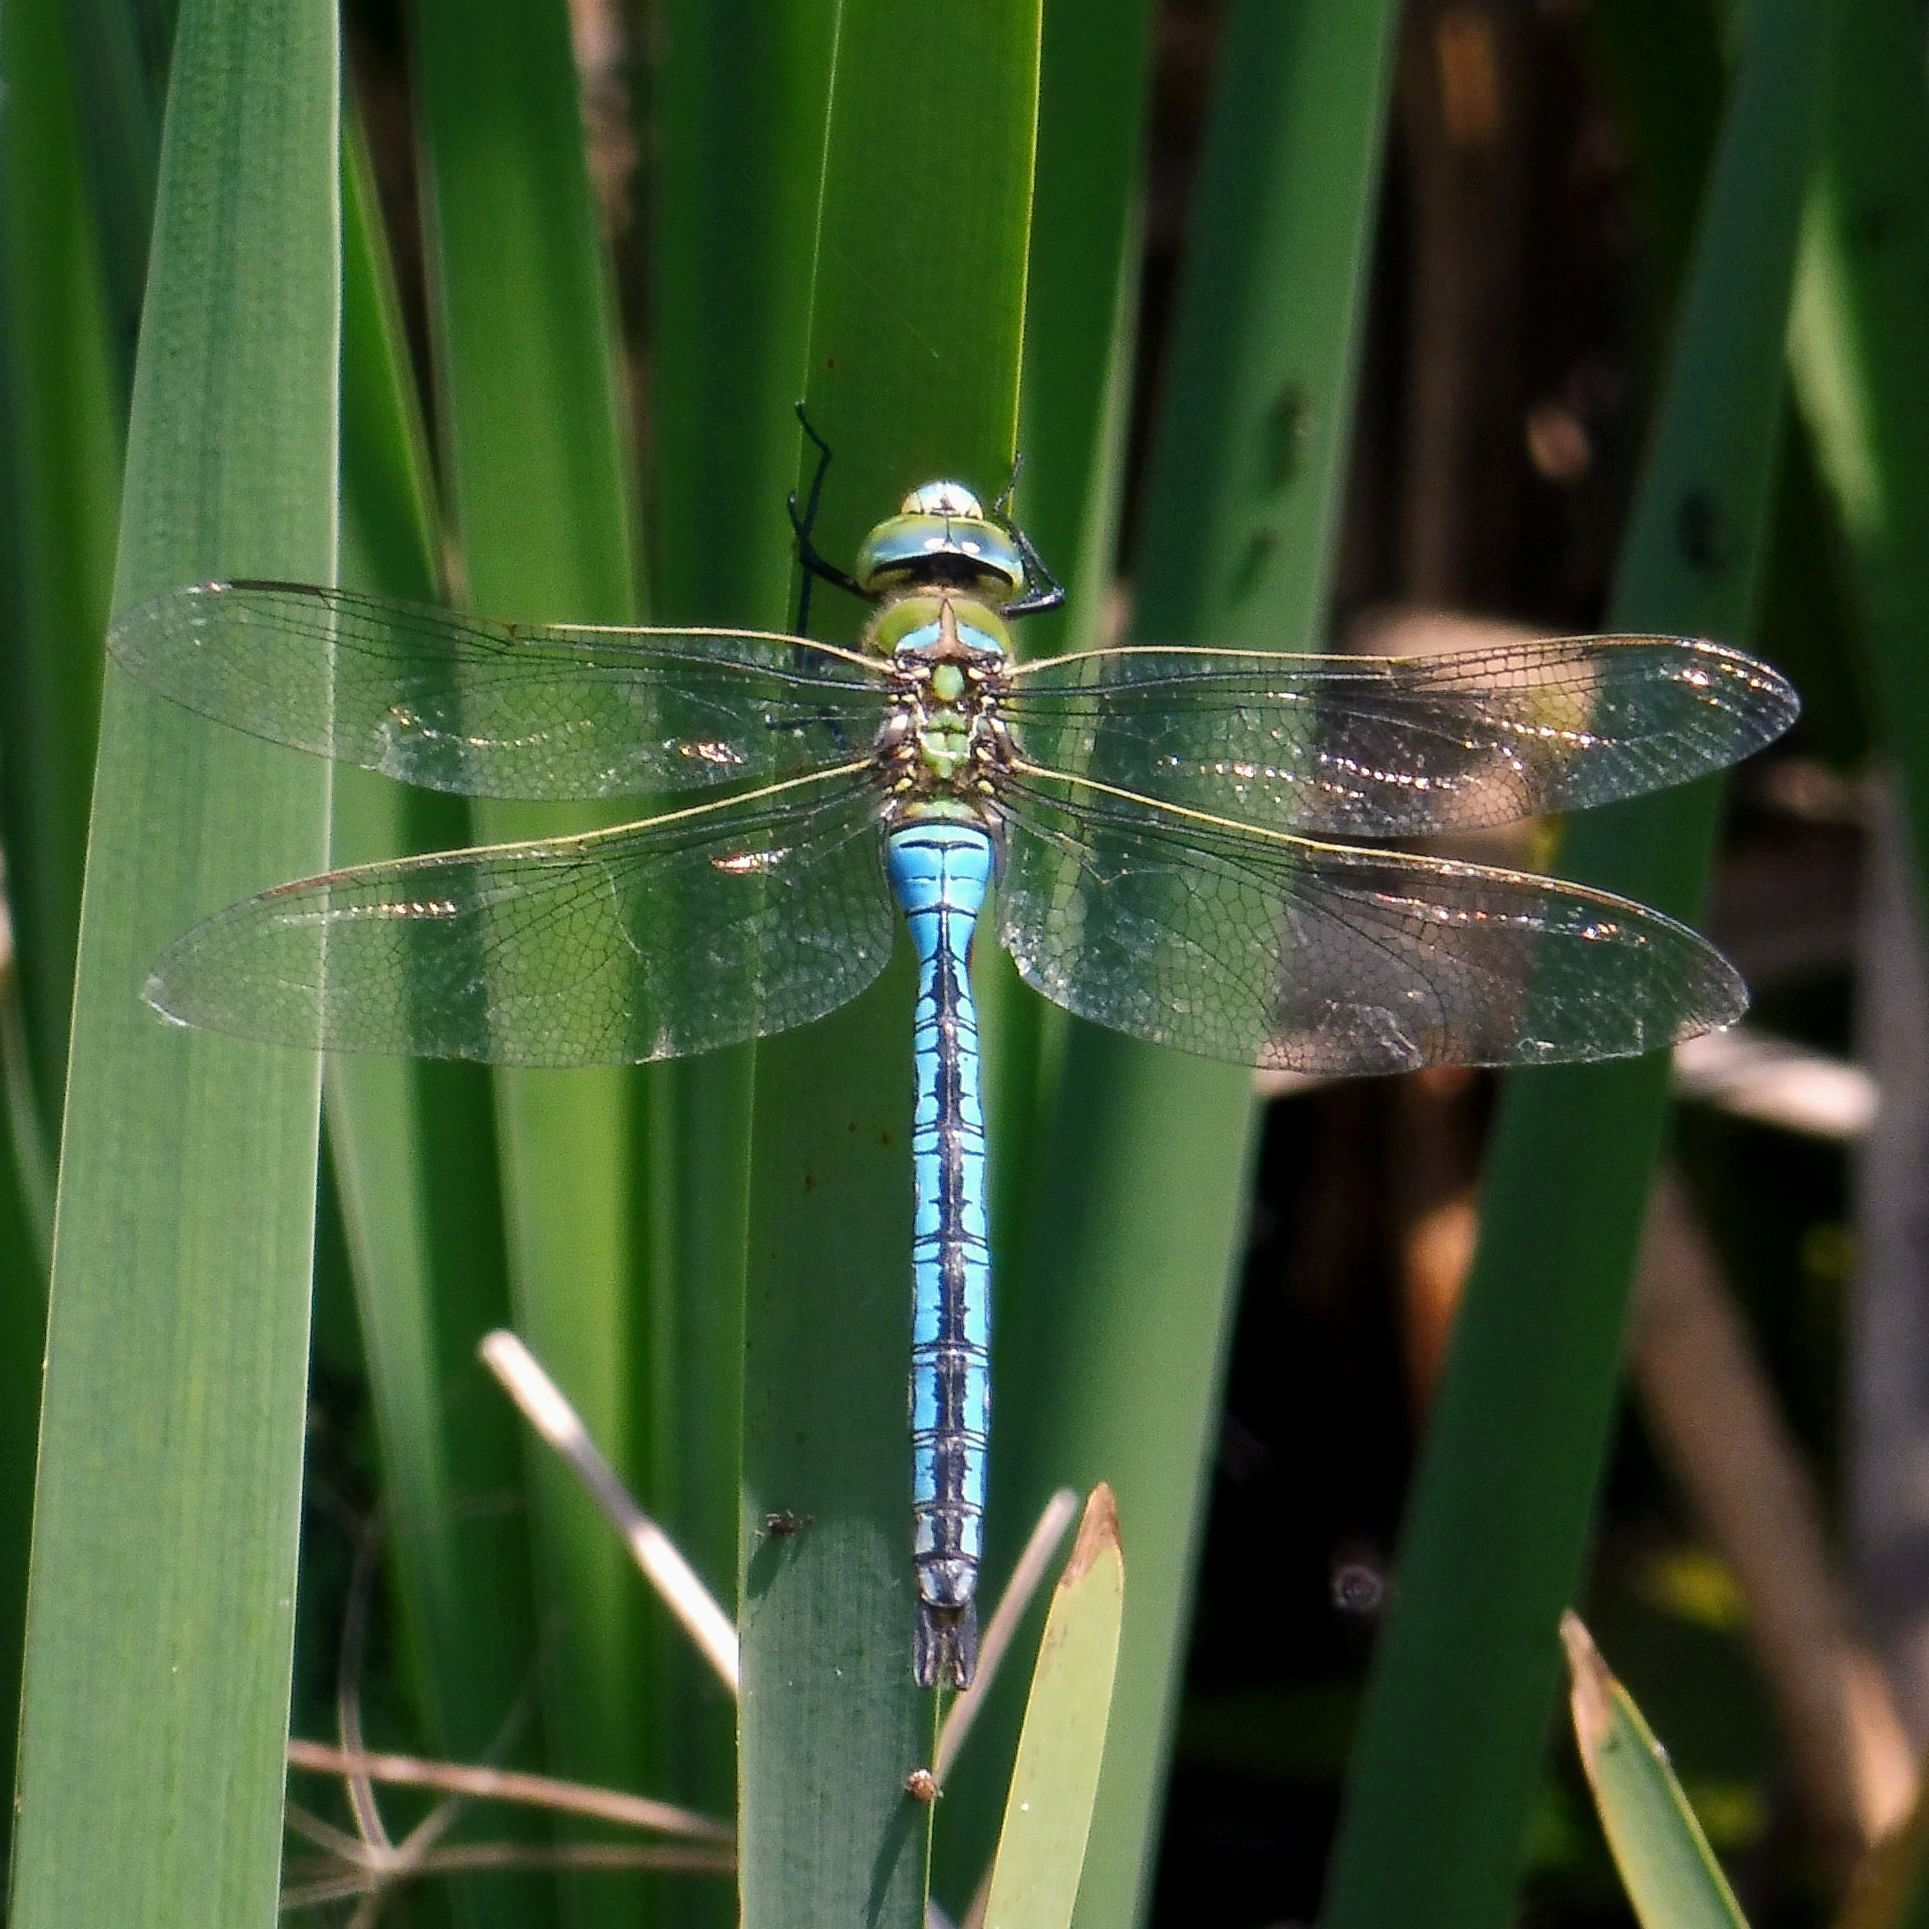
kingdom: Animalia
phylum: Arthropoda
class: Insecta
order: Odonata
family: Aeshnidae
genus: Anax
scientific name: Anax imperator
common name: Emperor dragonfly
